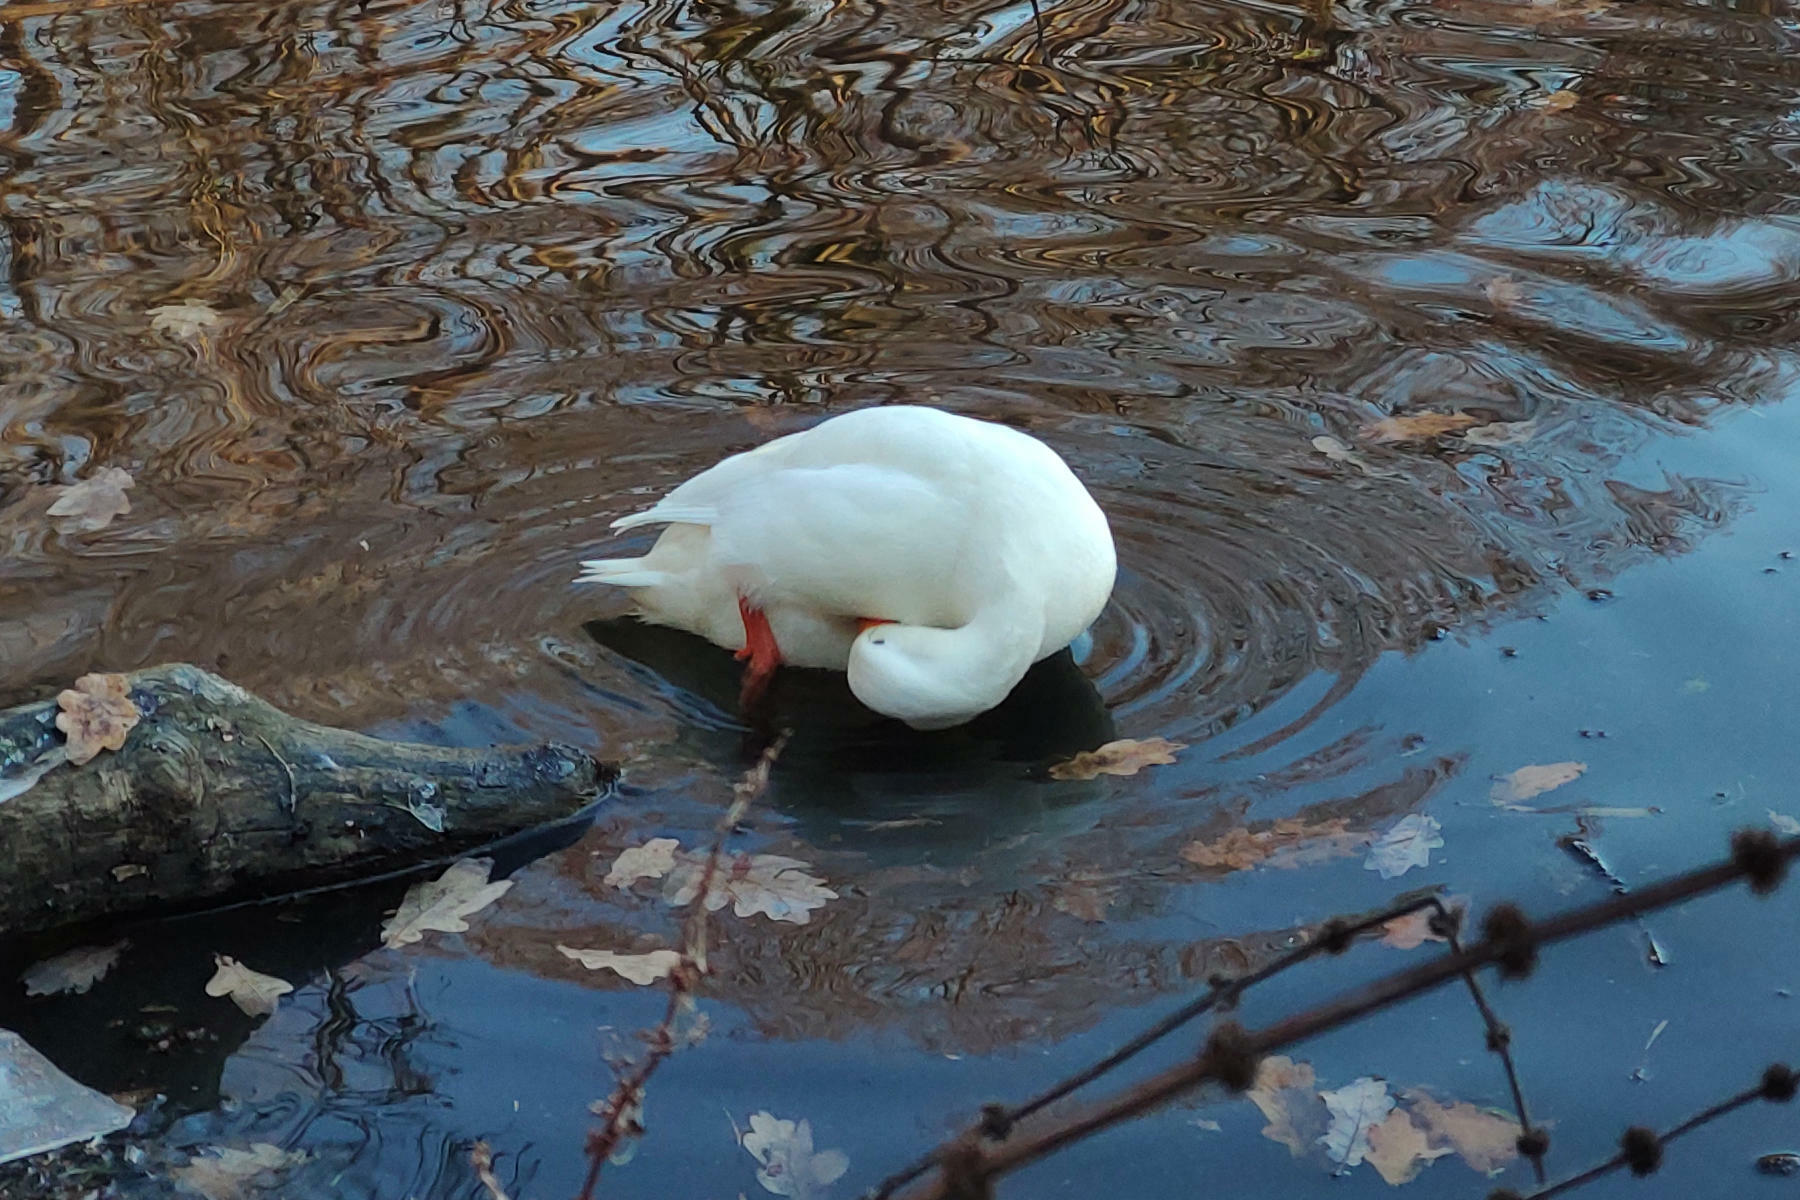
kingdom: Animalia
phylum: Chordata
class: Aves
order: Anseriformes
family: Anatidae
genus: Anas
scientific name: Anas platyrhynchos
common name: Mallard
